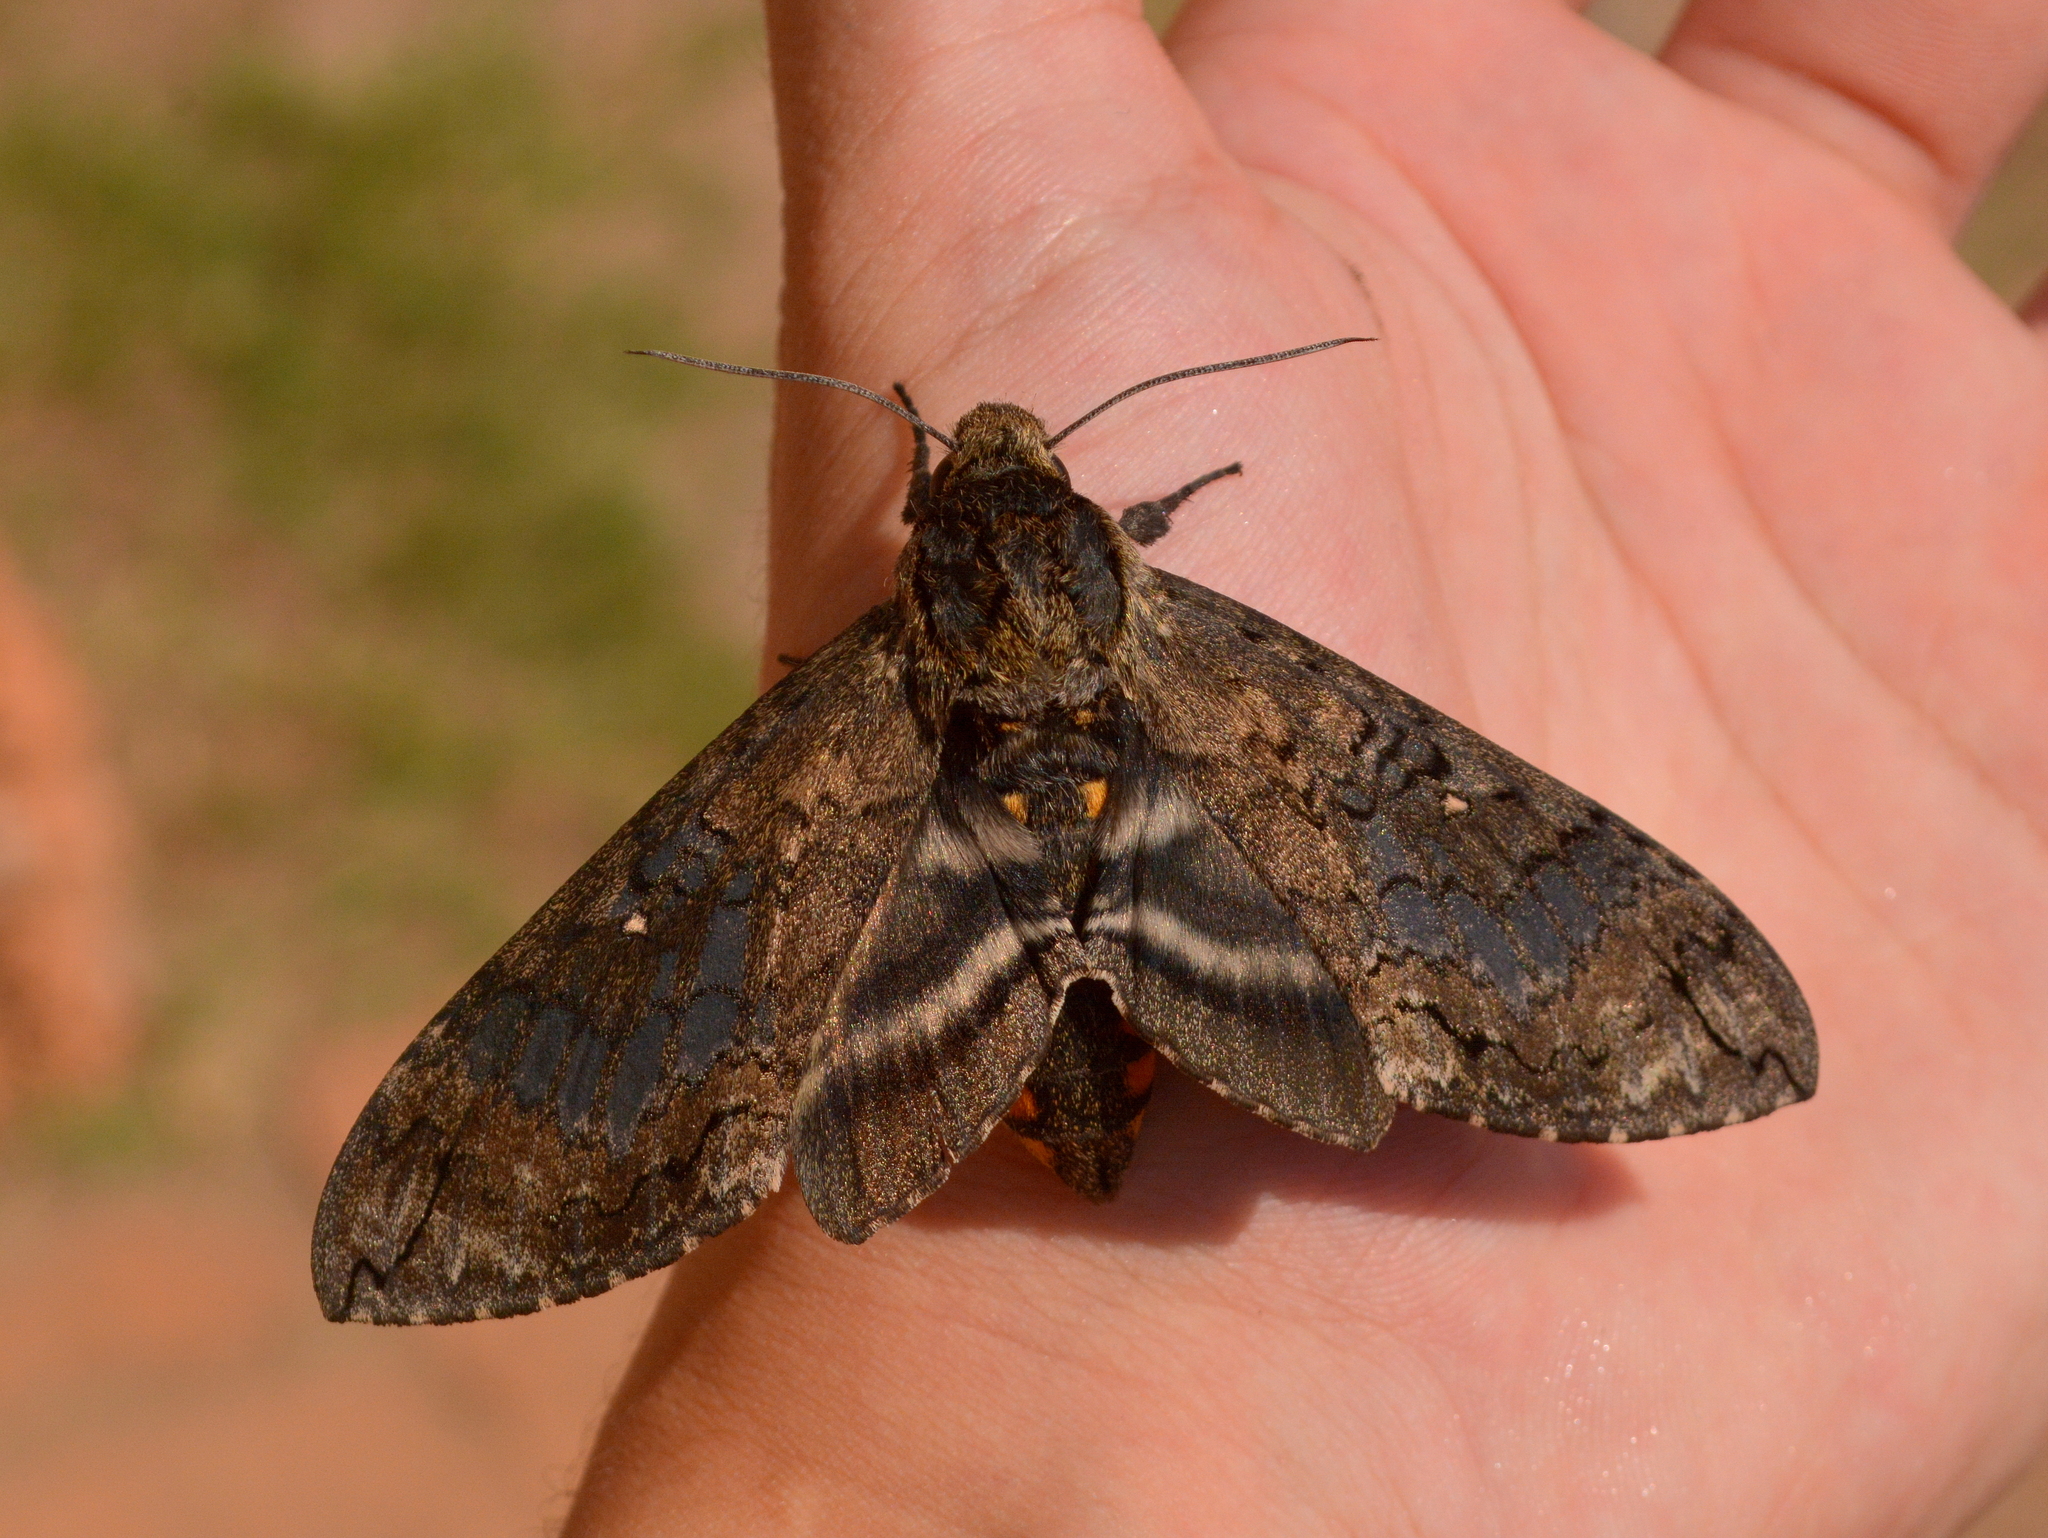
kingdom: Animalia
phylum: Arthropoda
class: Insecta
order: Lepidoptera
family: Sphingidae
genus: Manduca
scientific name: Manduca exiguus
